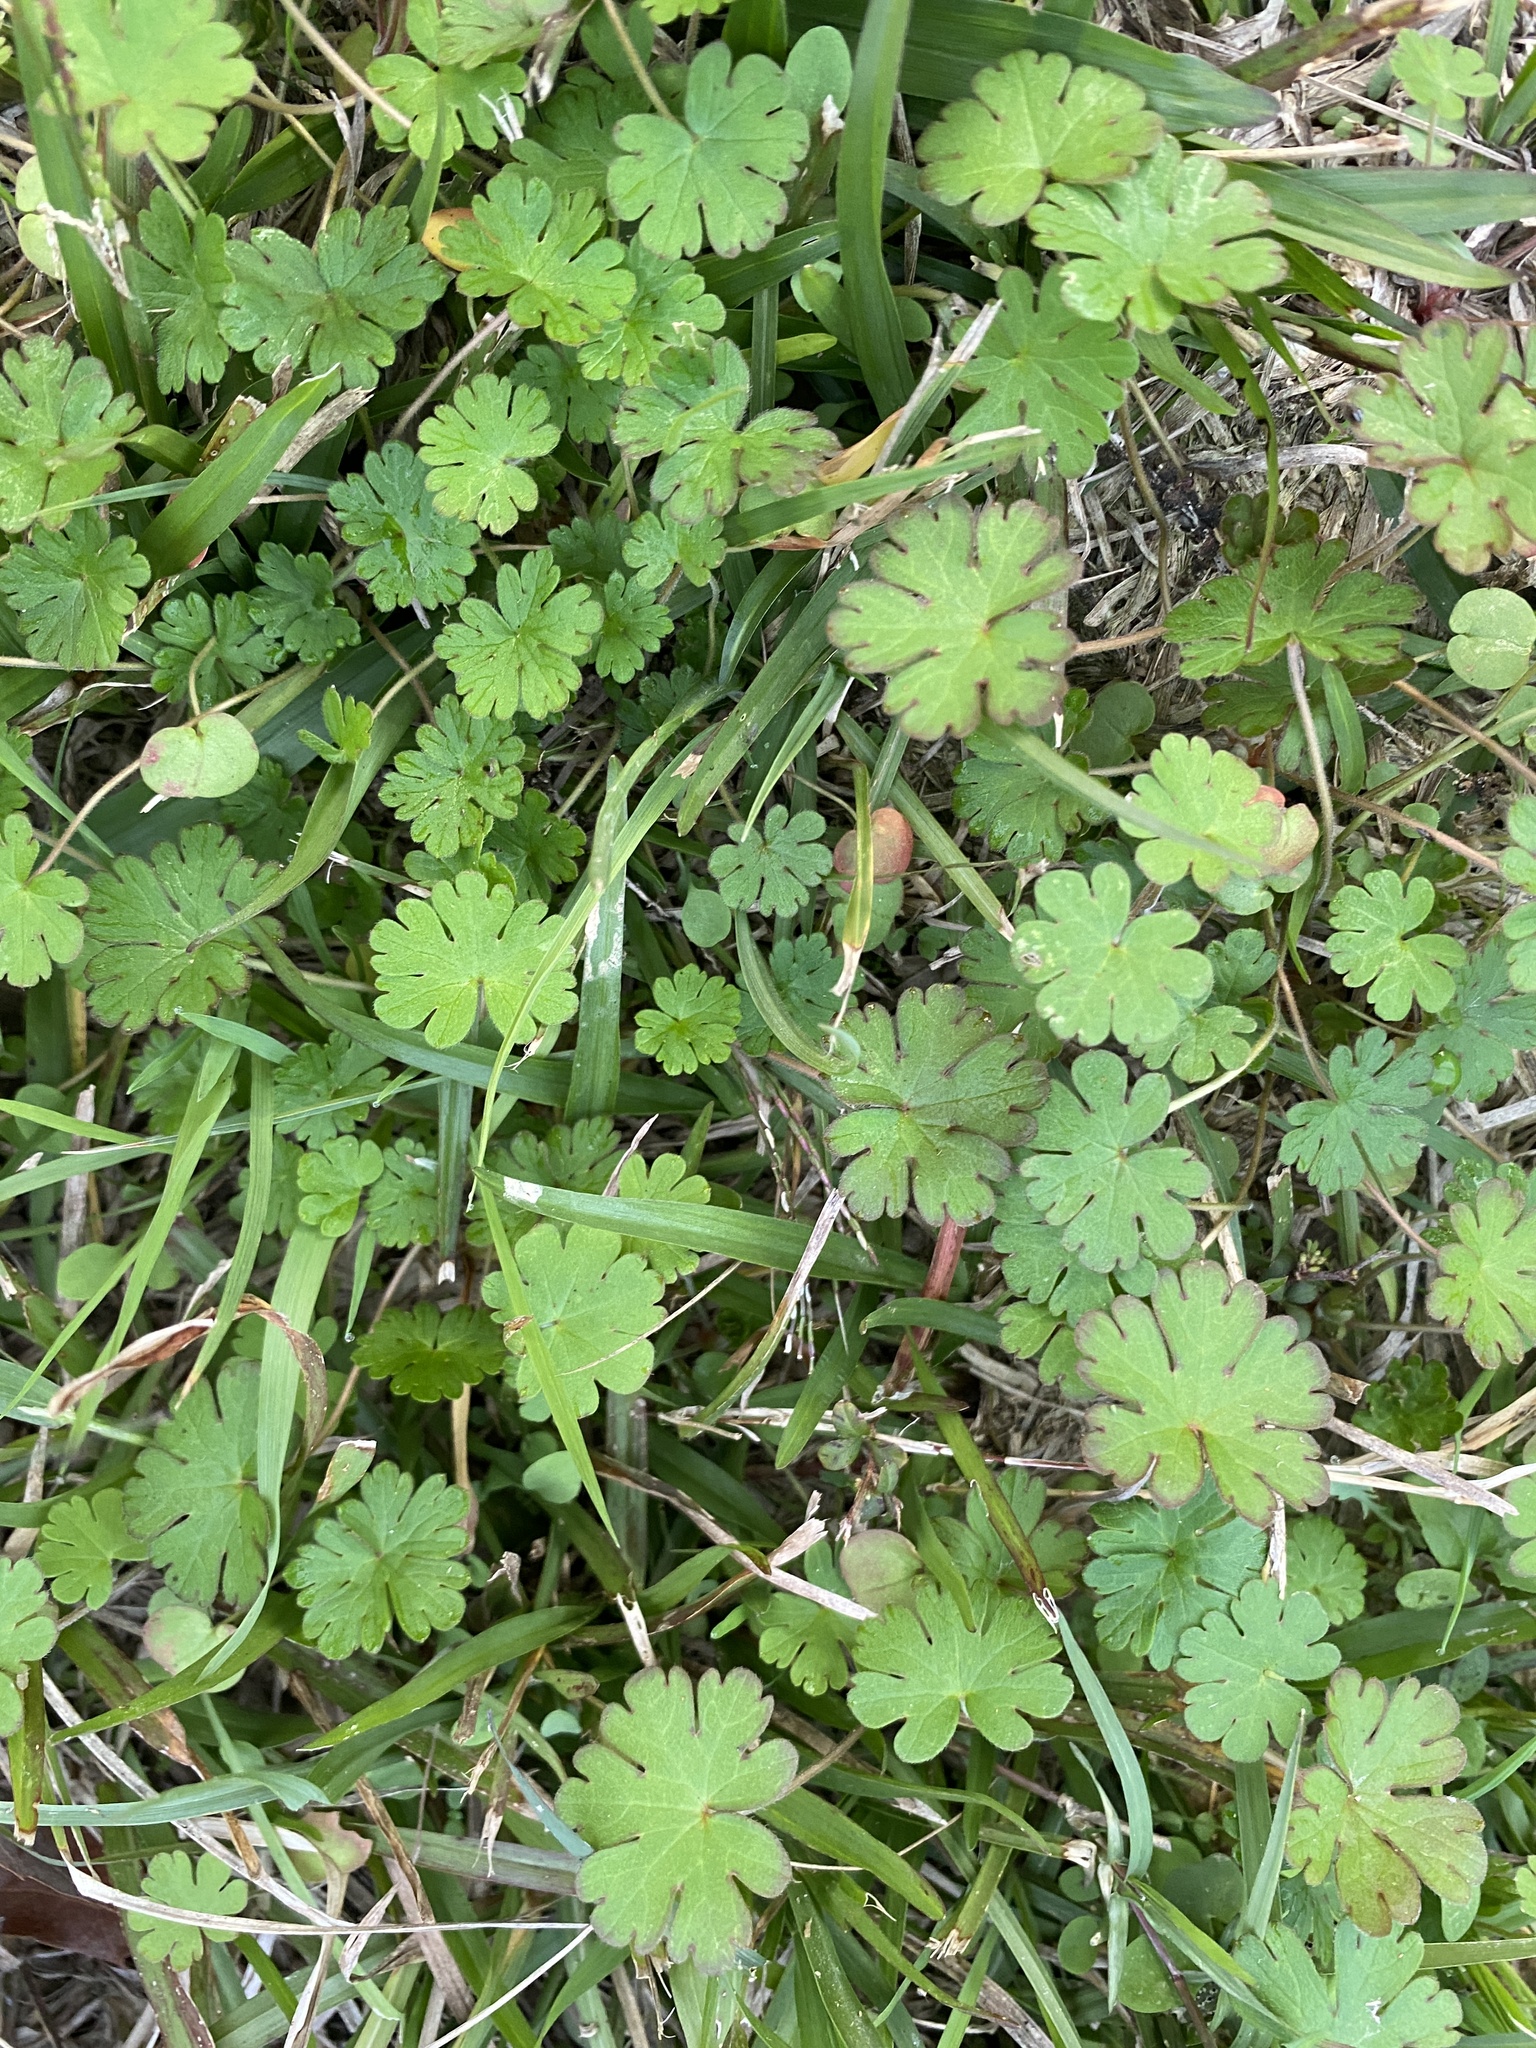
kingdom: Plantae
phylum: Tracheophyta
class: Magnoliopsida
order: Geraniales
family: Geraniaceae
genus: Geranium
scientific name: Geranium carolinianum
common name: Carolina crane's-bill
